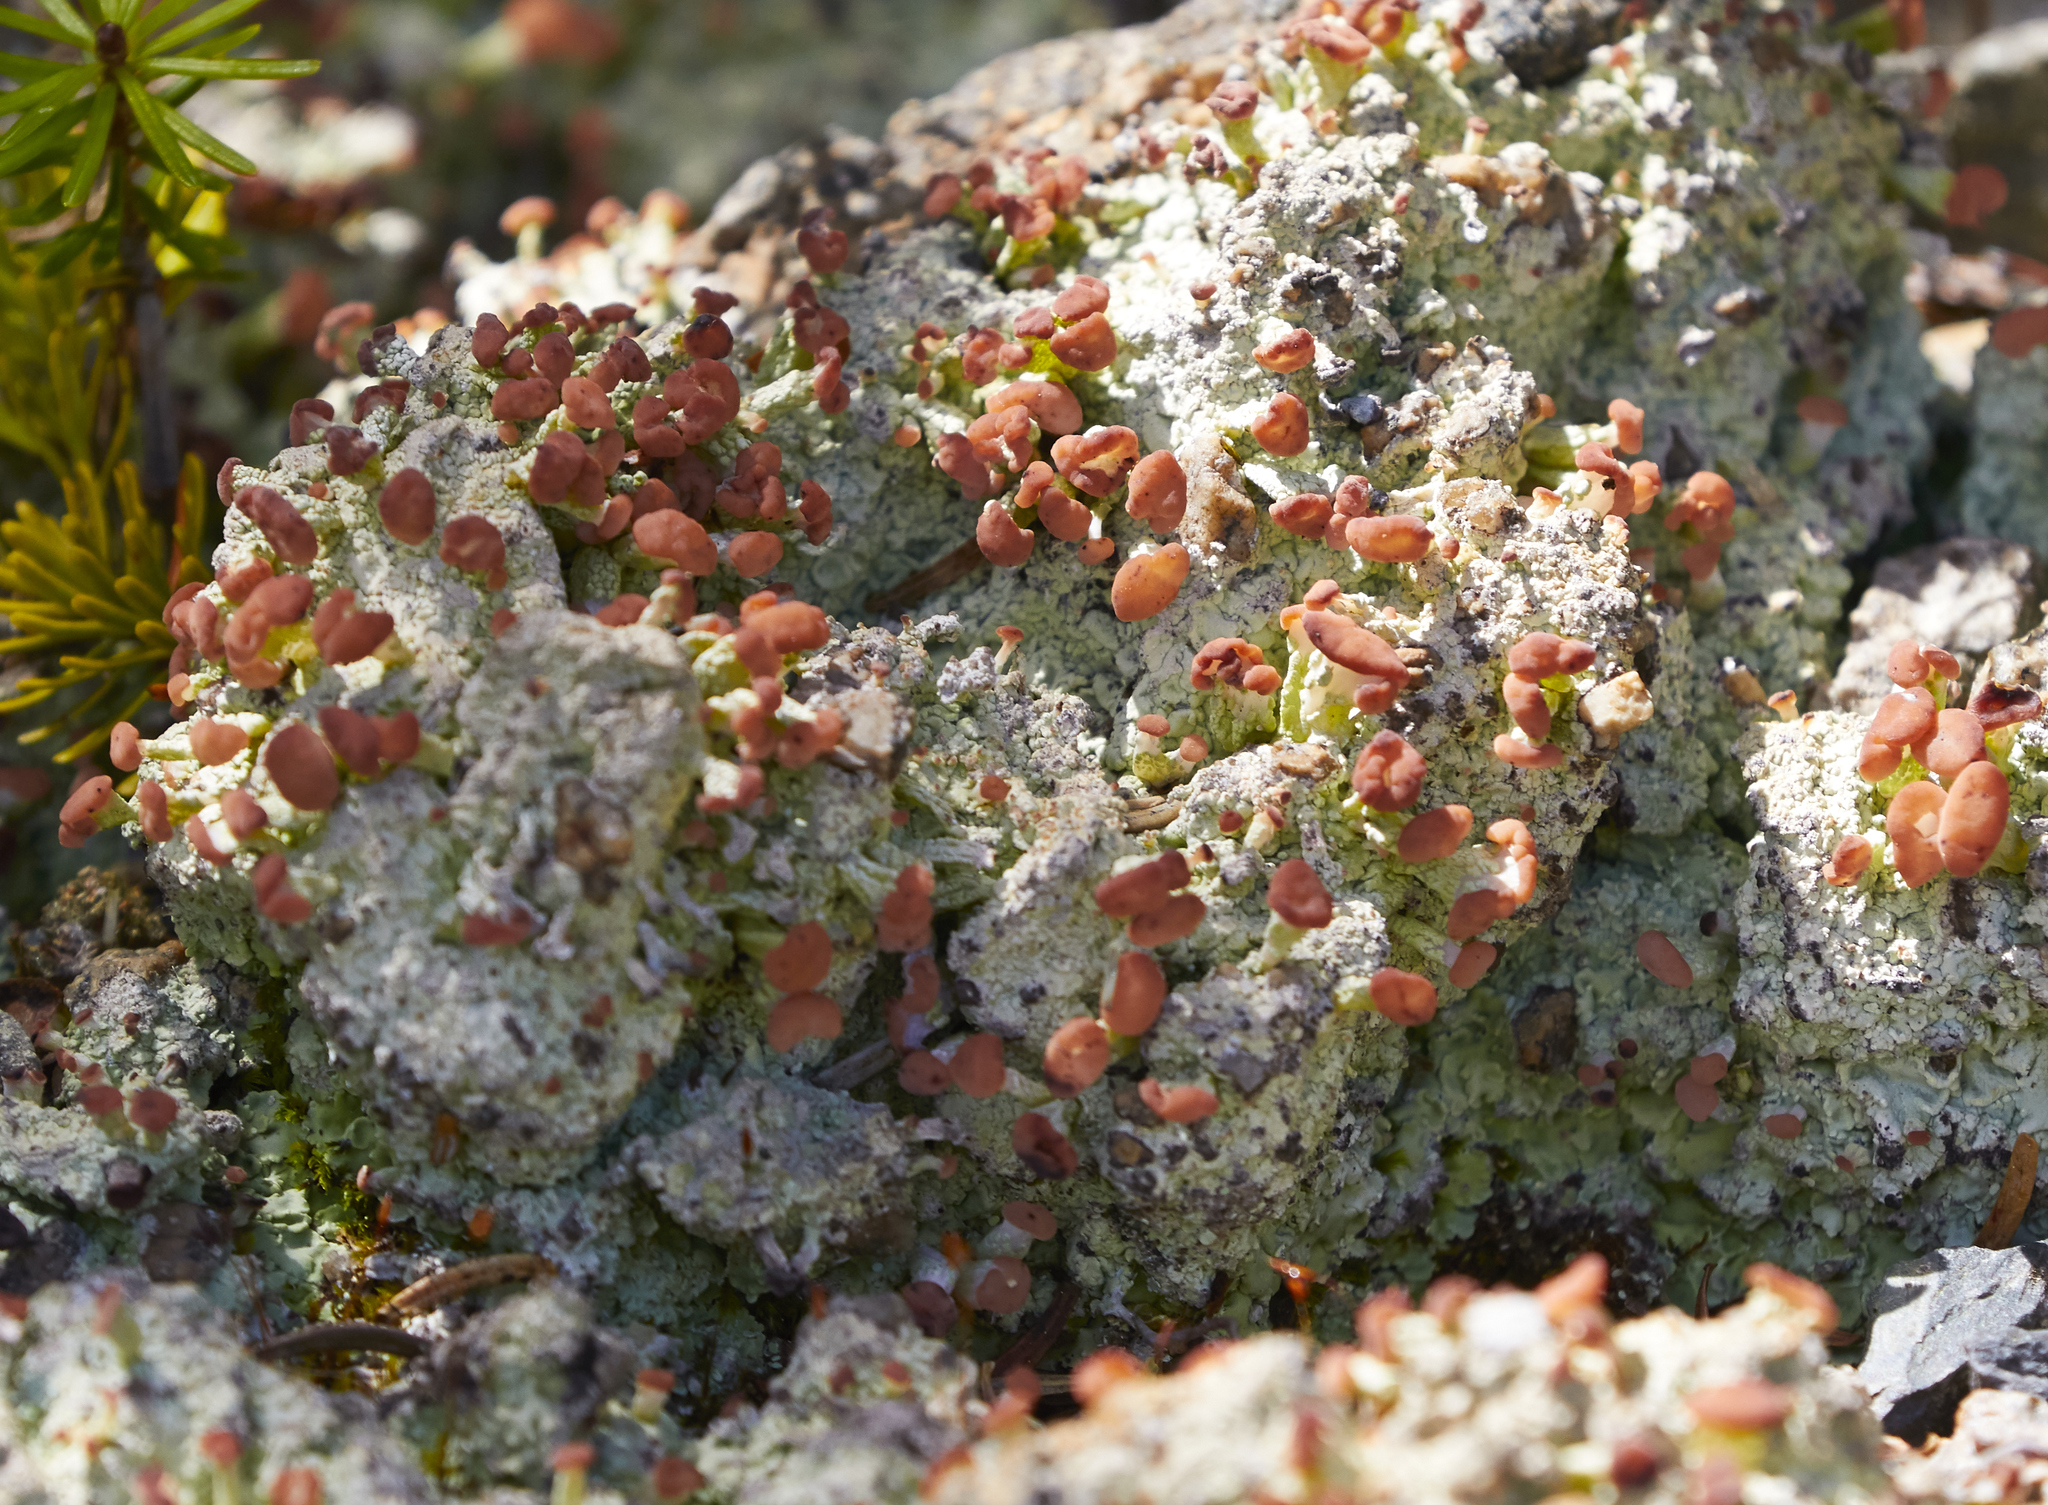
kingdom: Fungi
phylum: Ascomycota
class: Lecanoromycetes
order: Baeomycetales
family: Baeomycetaceae
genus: Baeomyces
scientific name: Baeomyces rufus
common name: Brown beret lichen
